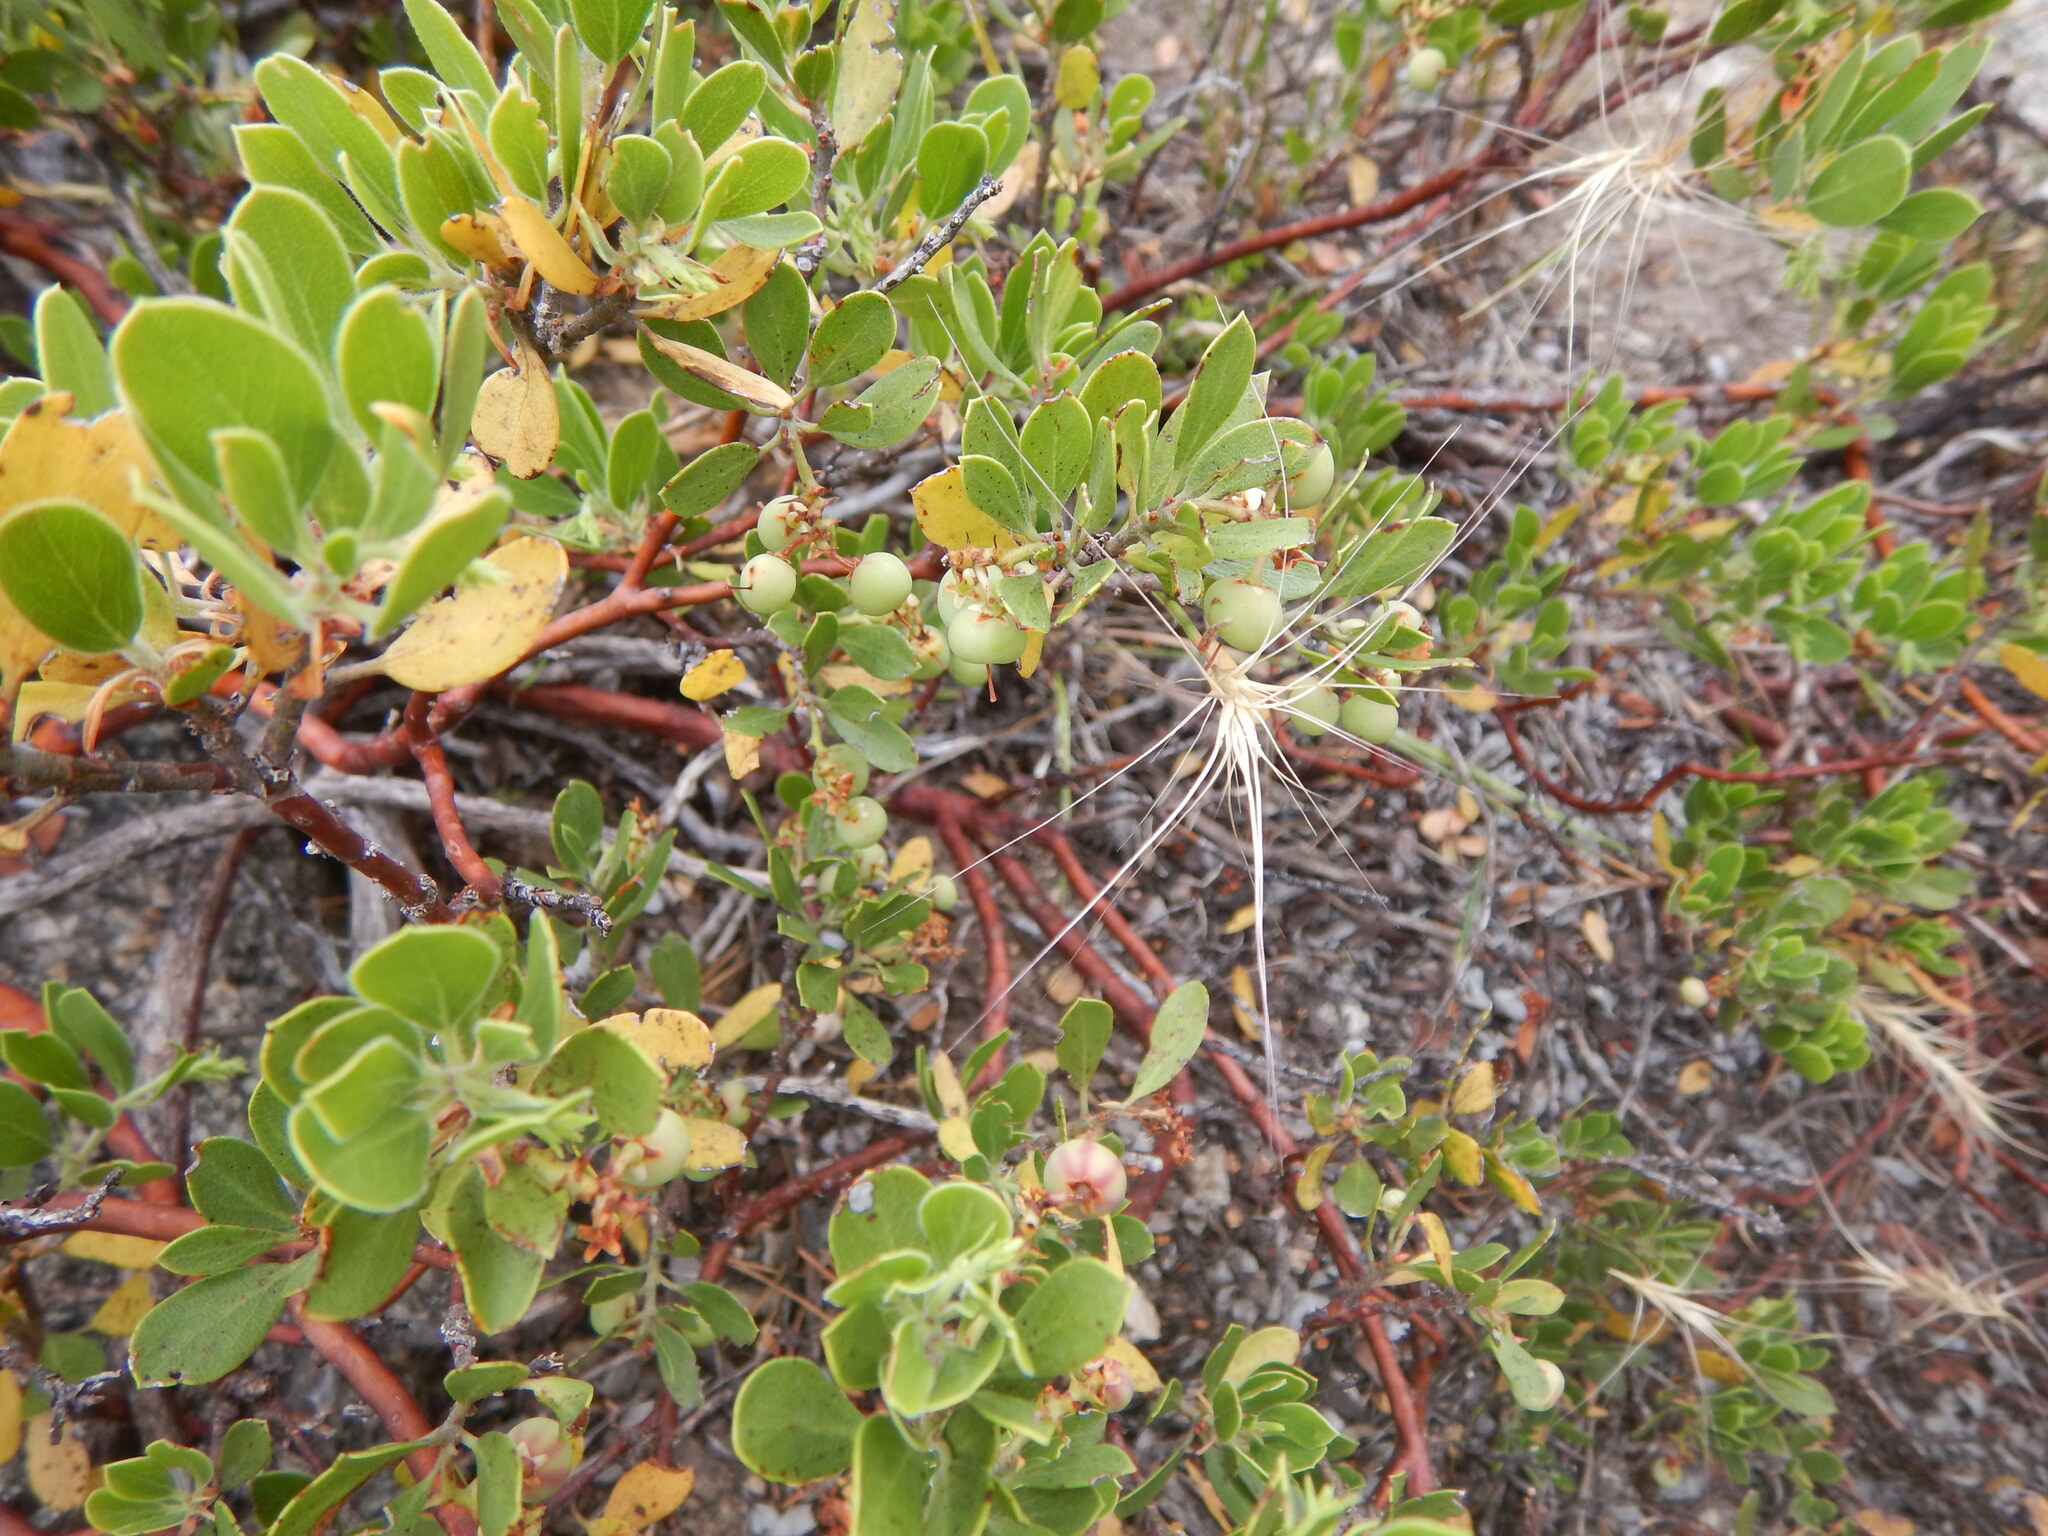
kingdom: Plantae
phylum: Tracheophyta
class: Magnoliopsida
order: Ericales
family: Ericaceae
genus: Arctostaphylos
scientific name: Arctostaphylos nevadensis
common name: Pinemat manzanita
